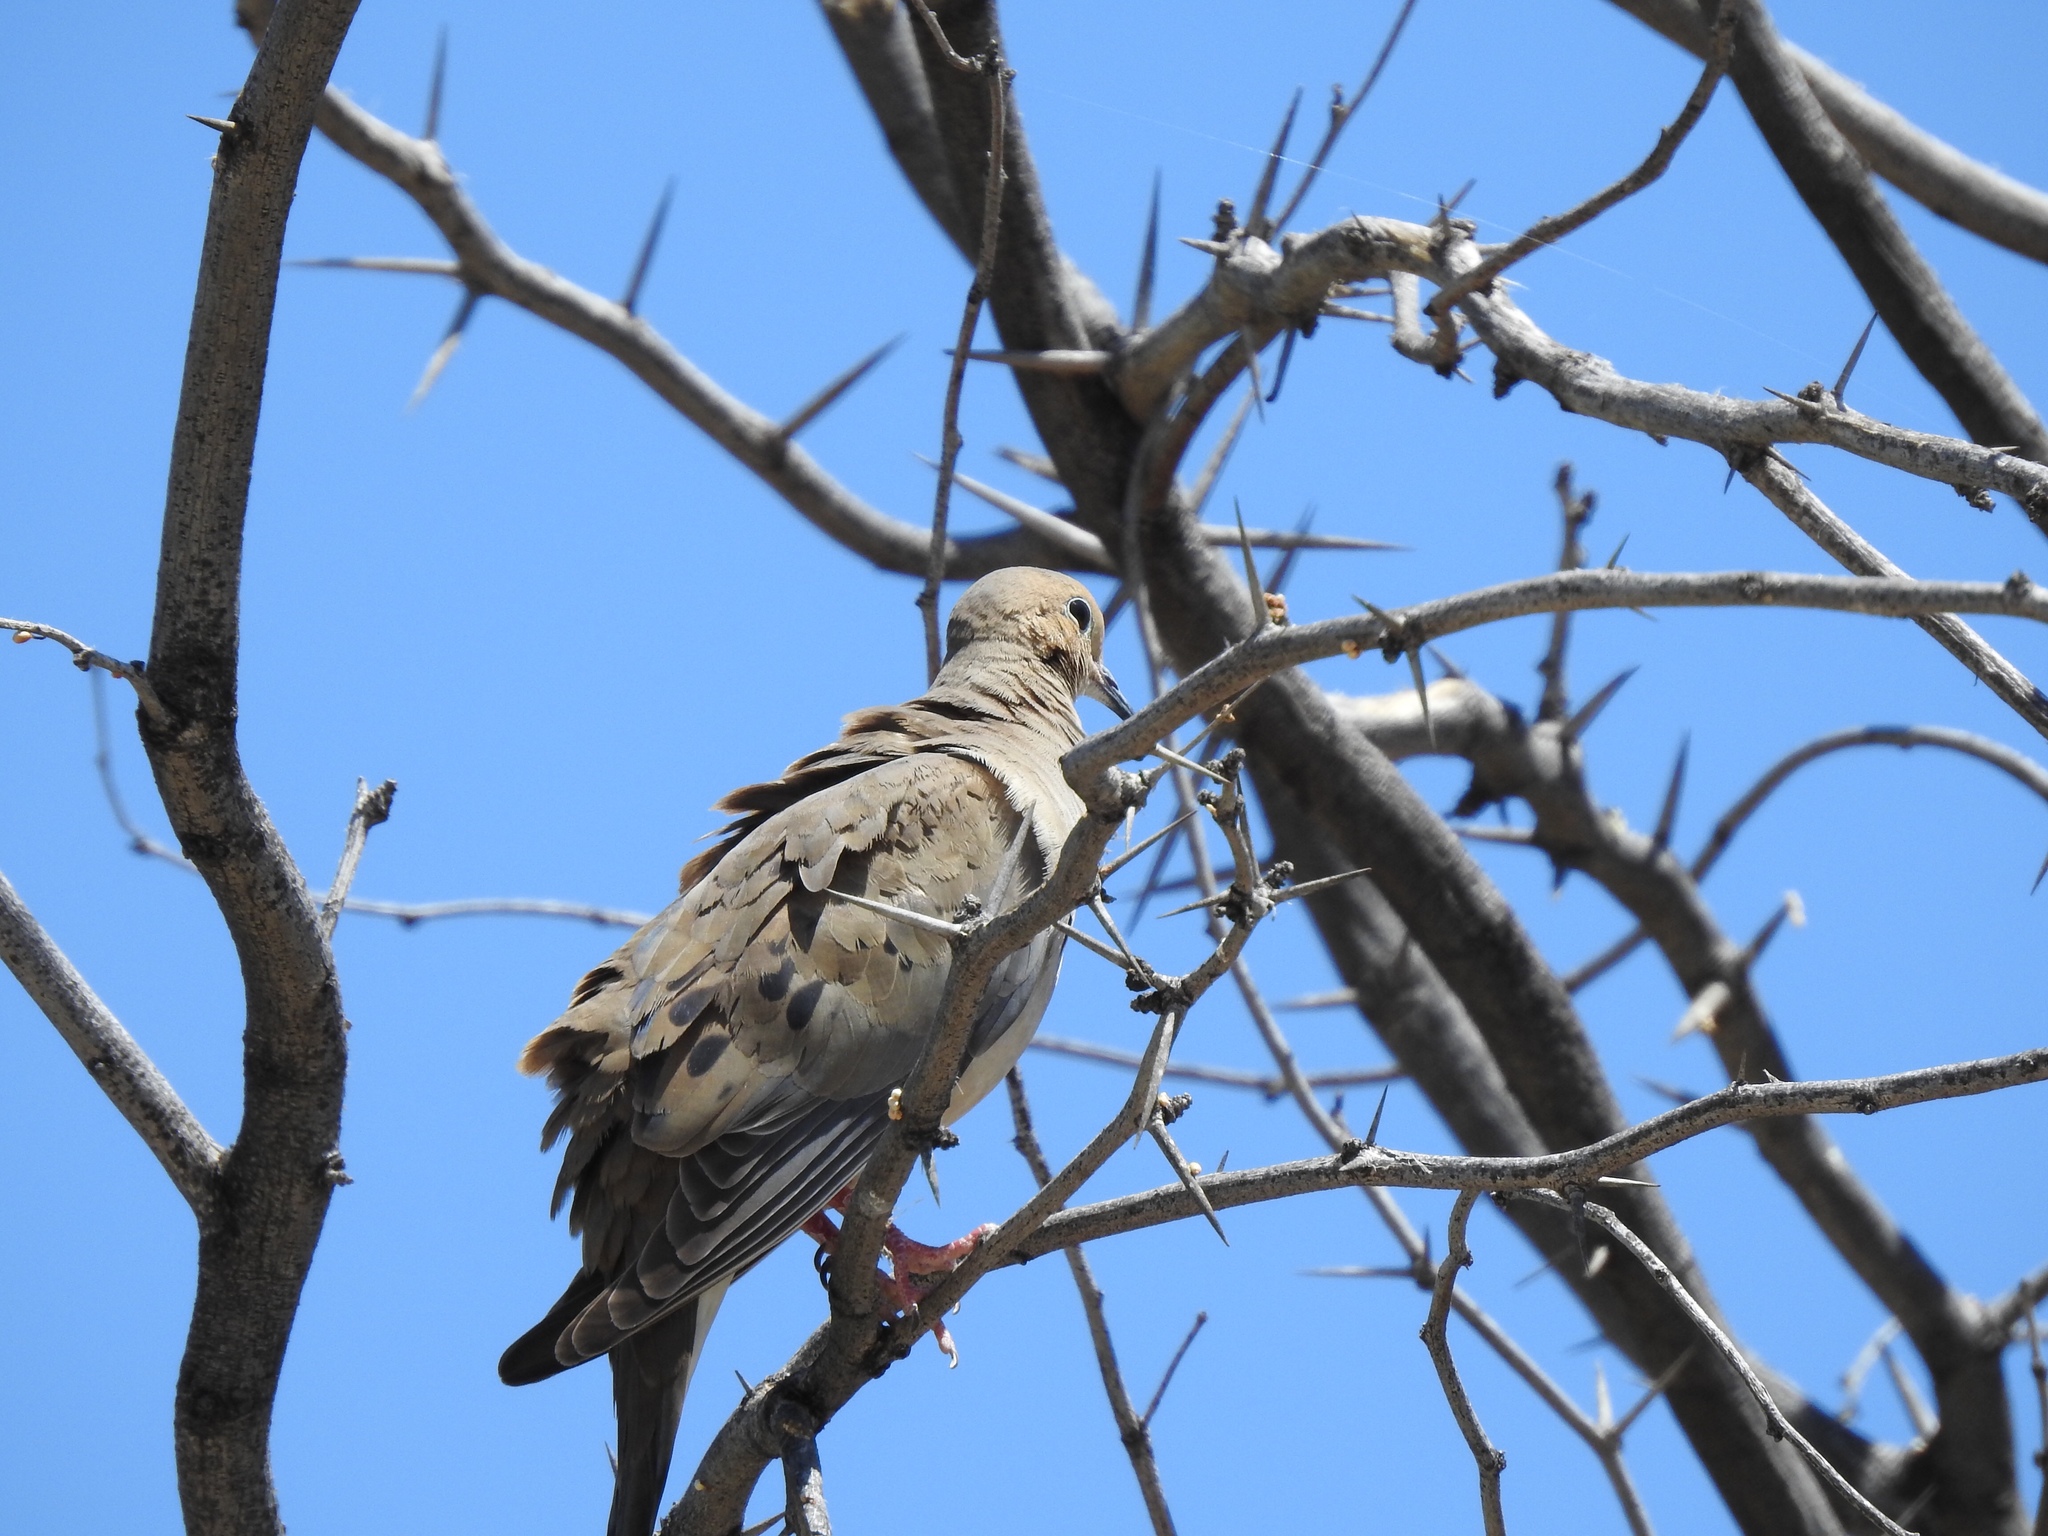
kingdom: Animalia
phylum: Chordata
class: Aves
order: Columbiformes
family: Columbidae
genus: Zenaida
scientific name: Zenaida macroura
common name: Mourning dove
